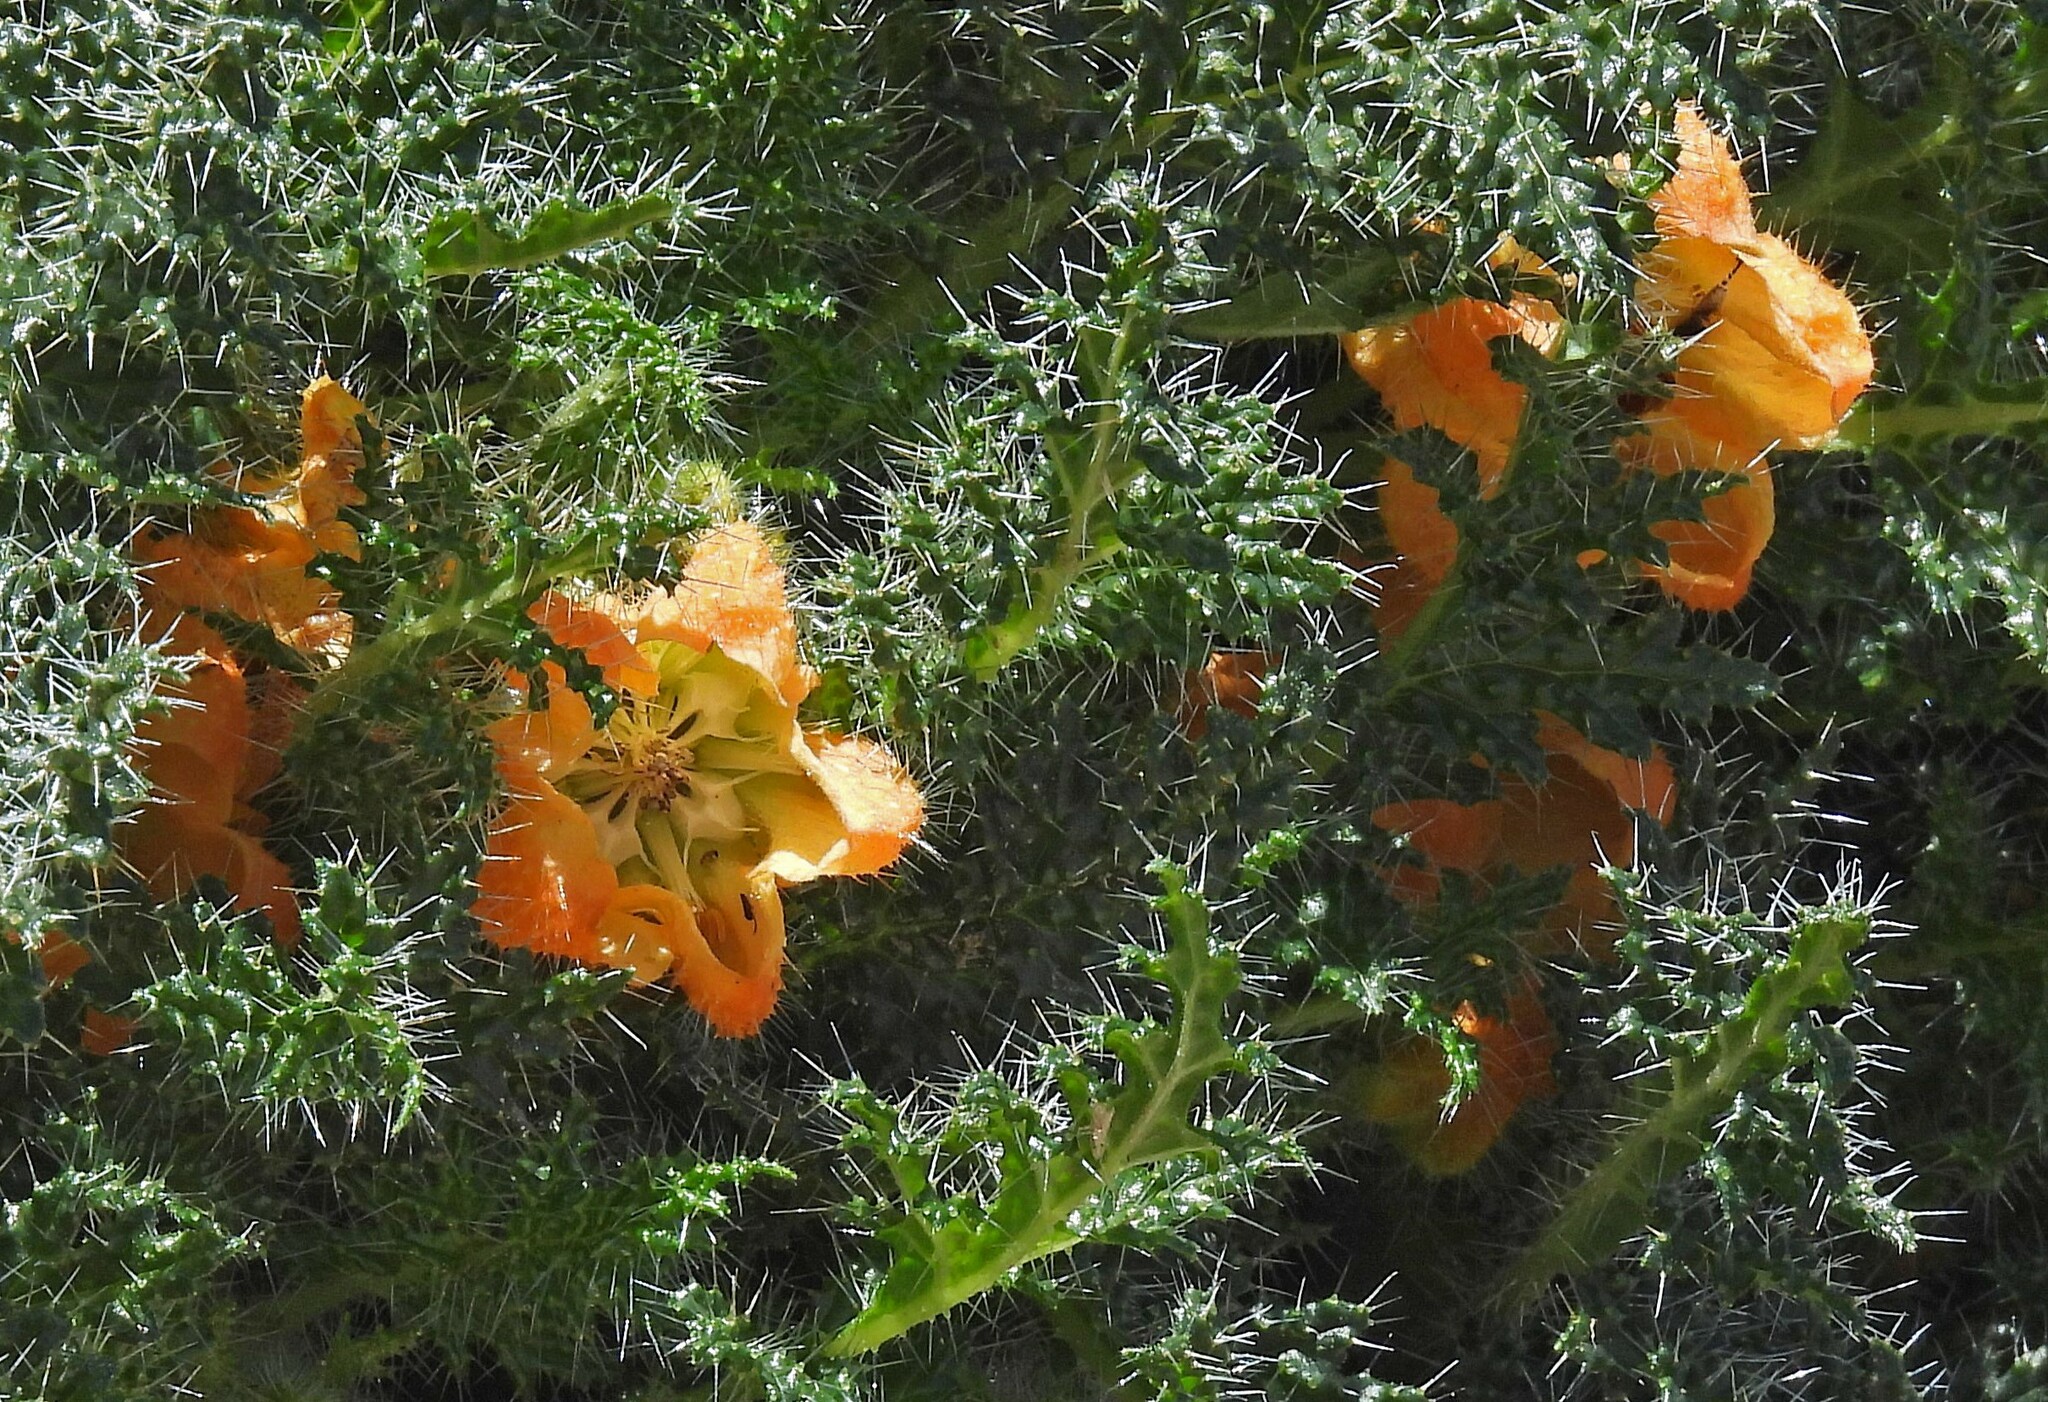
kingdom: Plantae
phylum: Tracheophyta
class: Magnoliopsida
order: Cornales
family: Loasaceae
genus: Caiophora
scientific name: Caiophora chuquitensis
